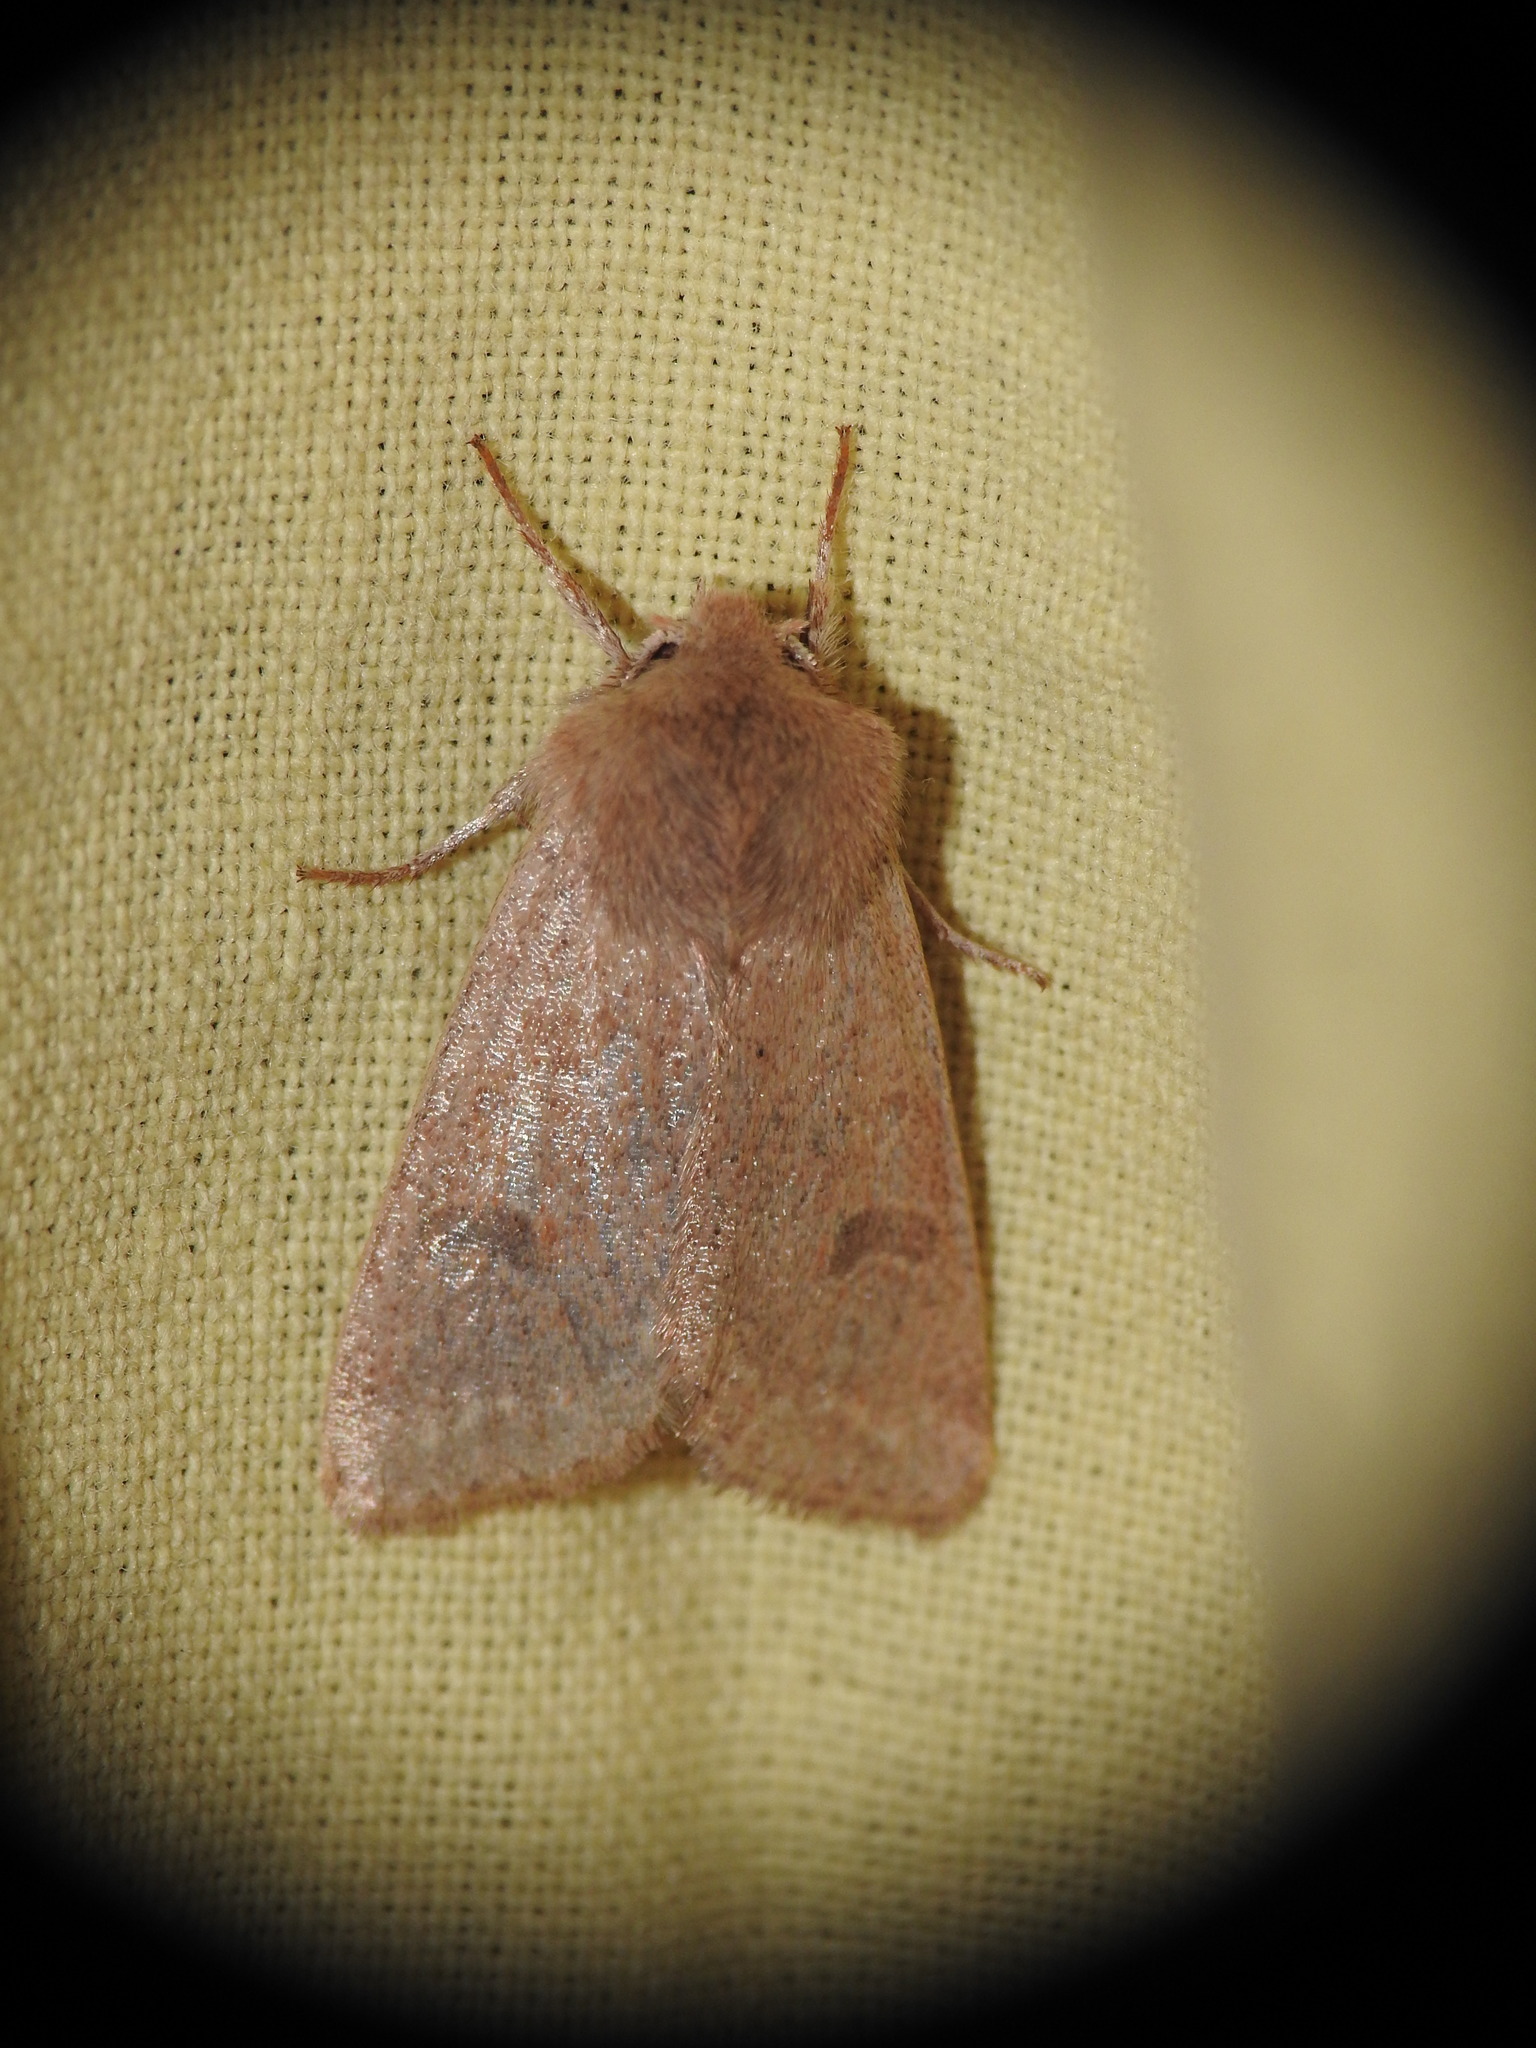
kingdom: Animalia
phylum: Arthropoda
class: Insecta
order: Lepidoptera
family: Noctuidae
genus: Orthosia
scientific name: Orthosia cruda
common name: Small quaker
